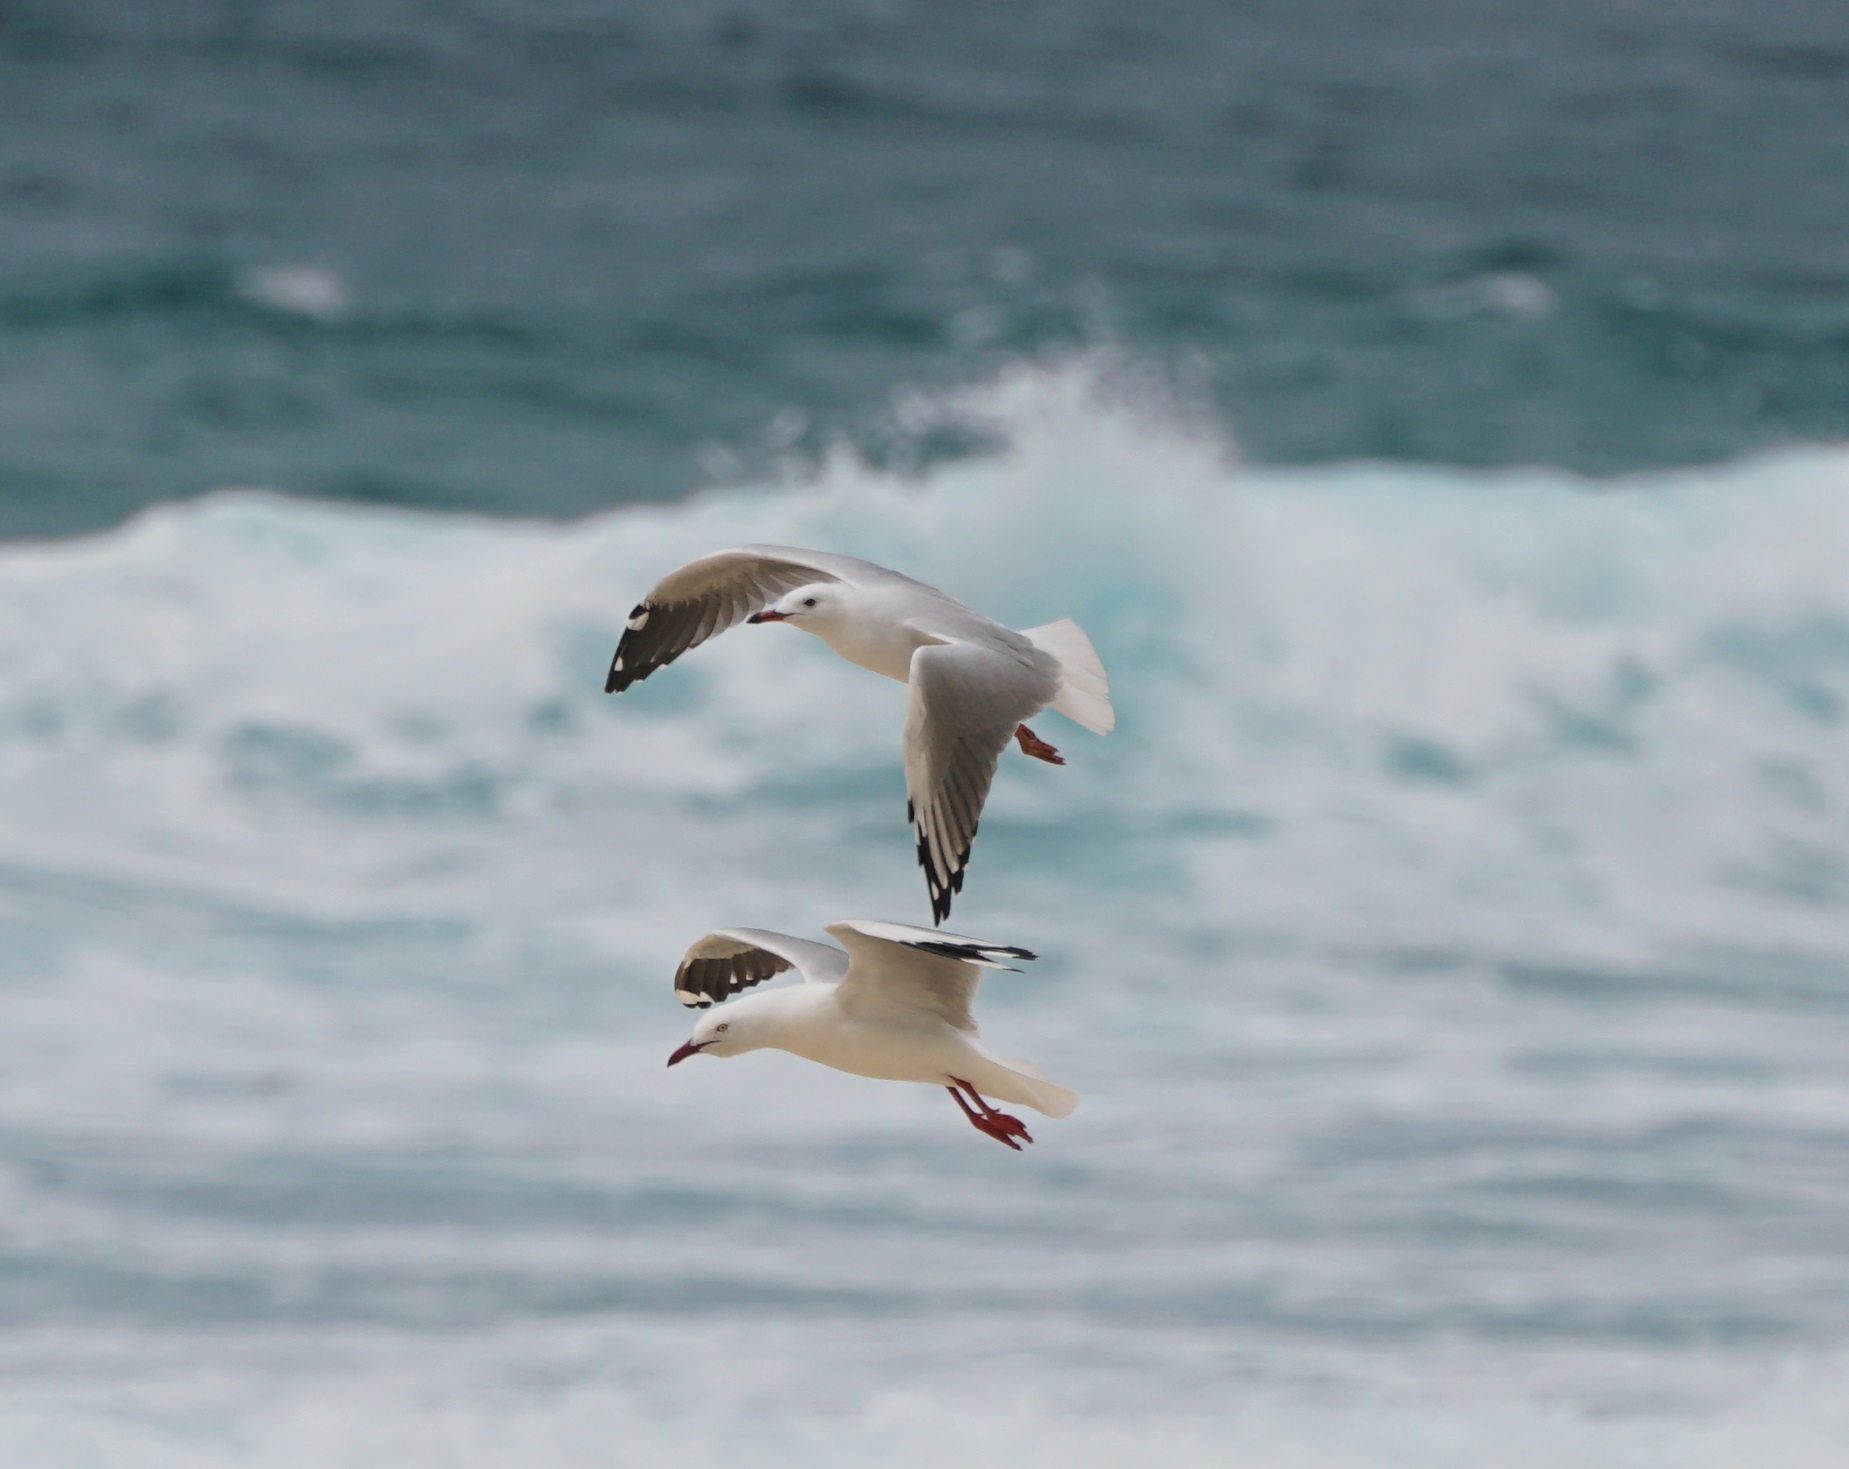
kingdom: Animalia
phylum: Chordata
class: Aves
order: Charadriiformes
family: Laridae
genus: Chroicocephalus
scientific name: Chroicocephalus novaehollandiae
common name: Silver gull
